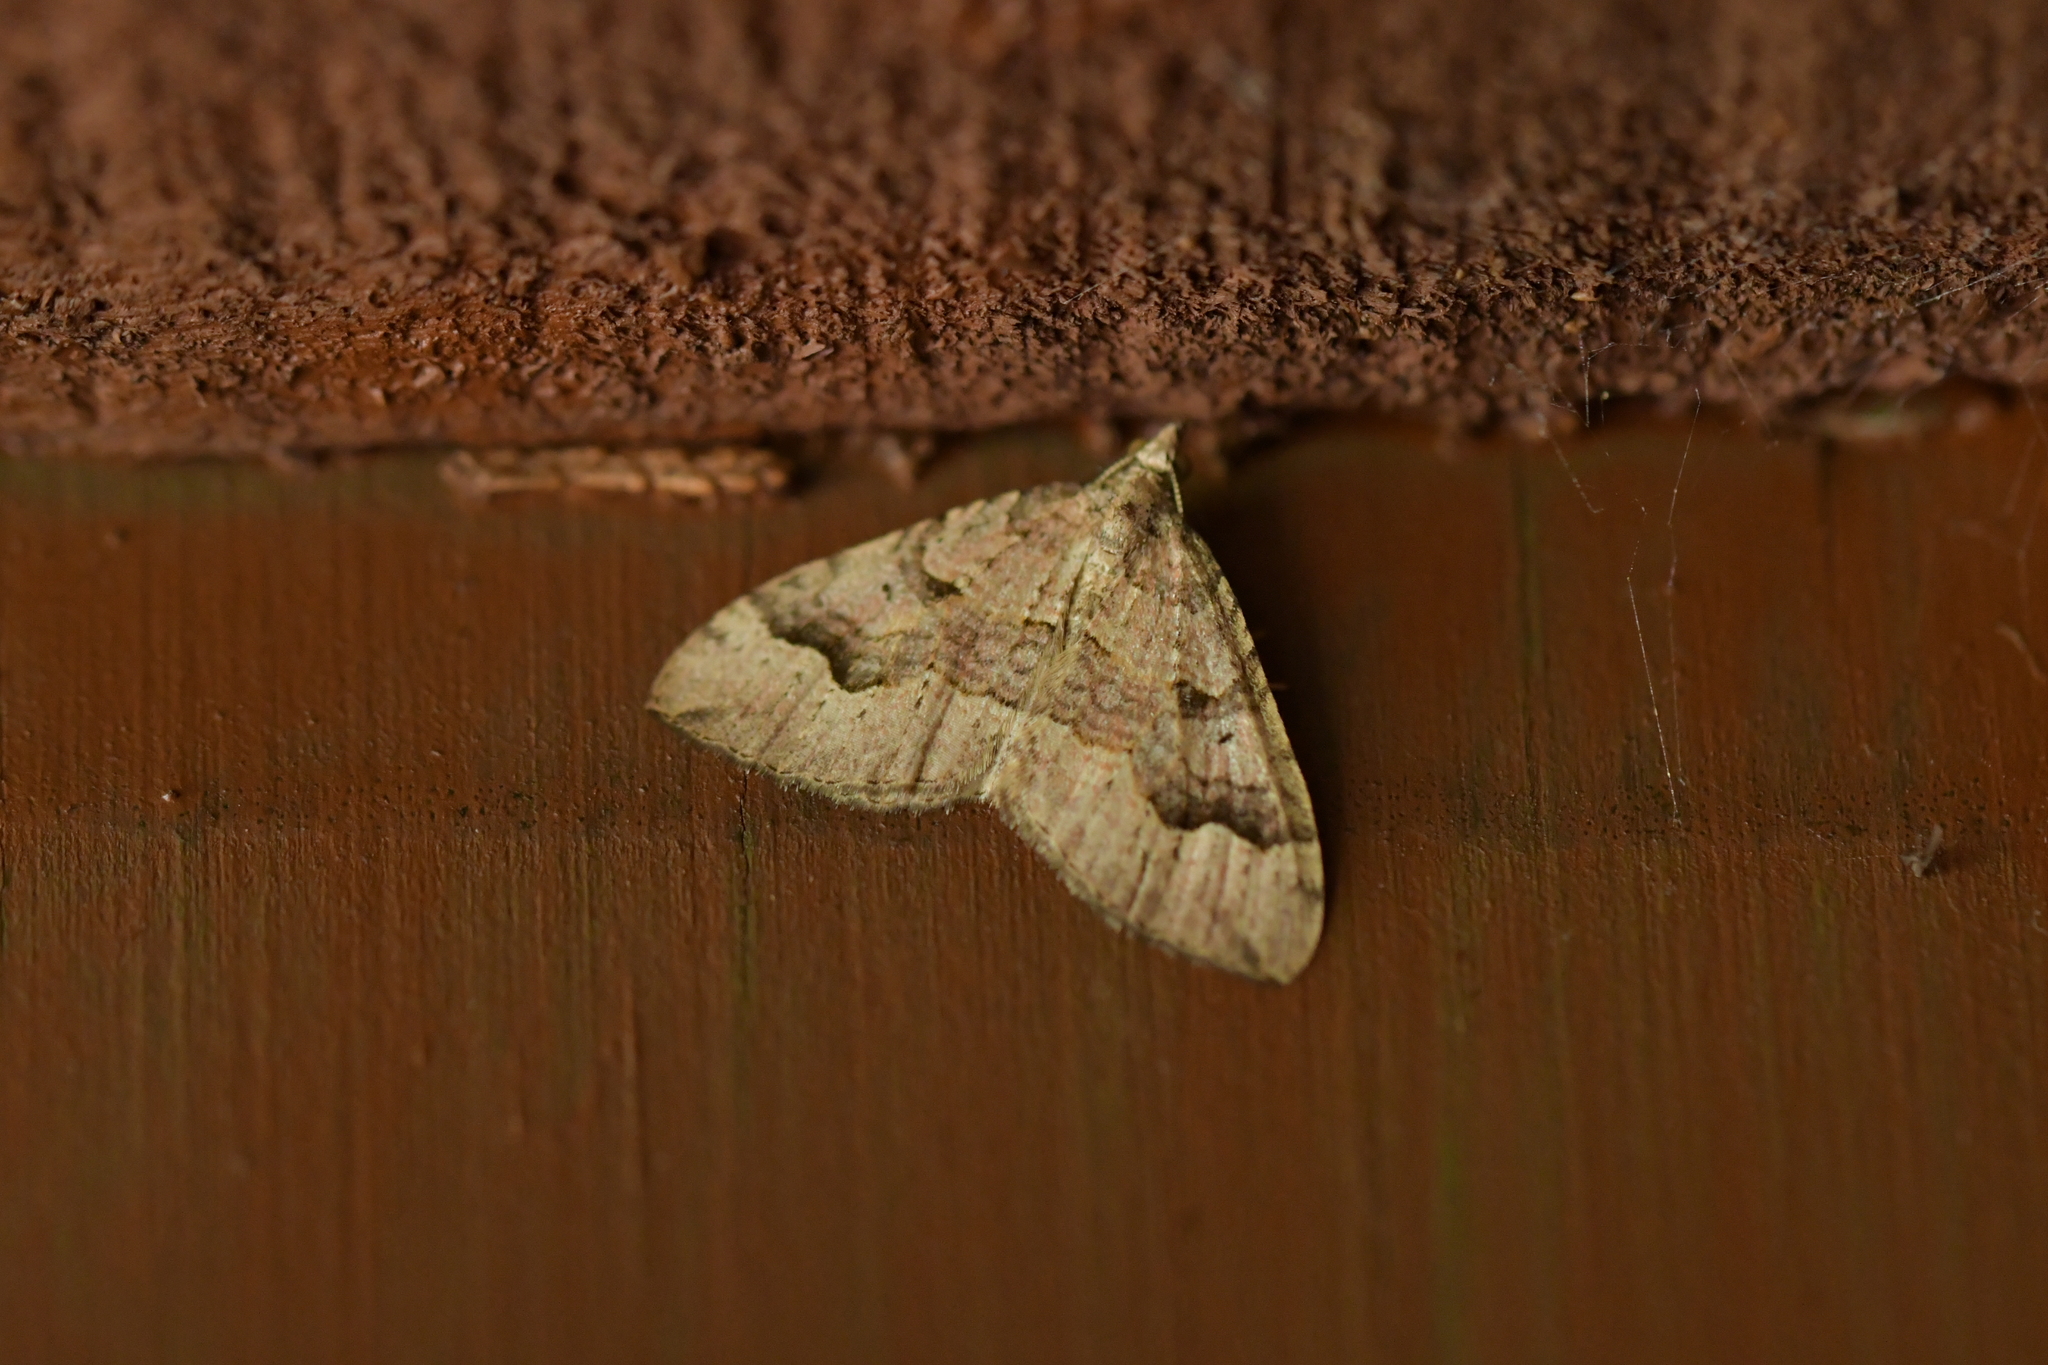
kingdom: Animalia
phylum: Arthropoda
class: Insecta
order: Lepidoptera
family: Geometridae
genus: Epyaxa
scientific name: Epyaxa rosearia
